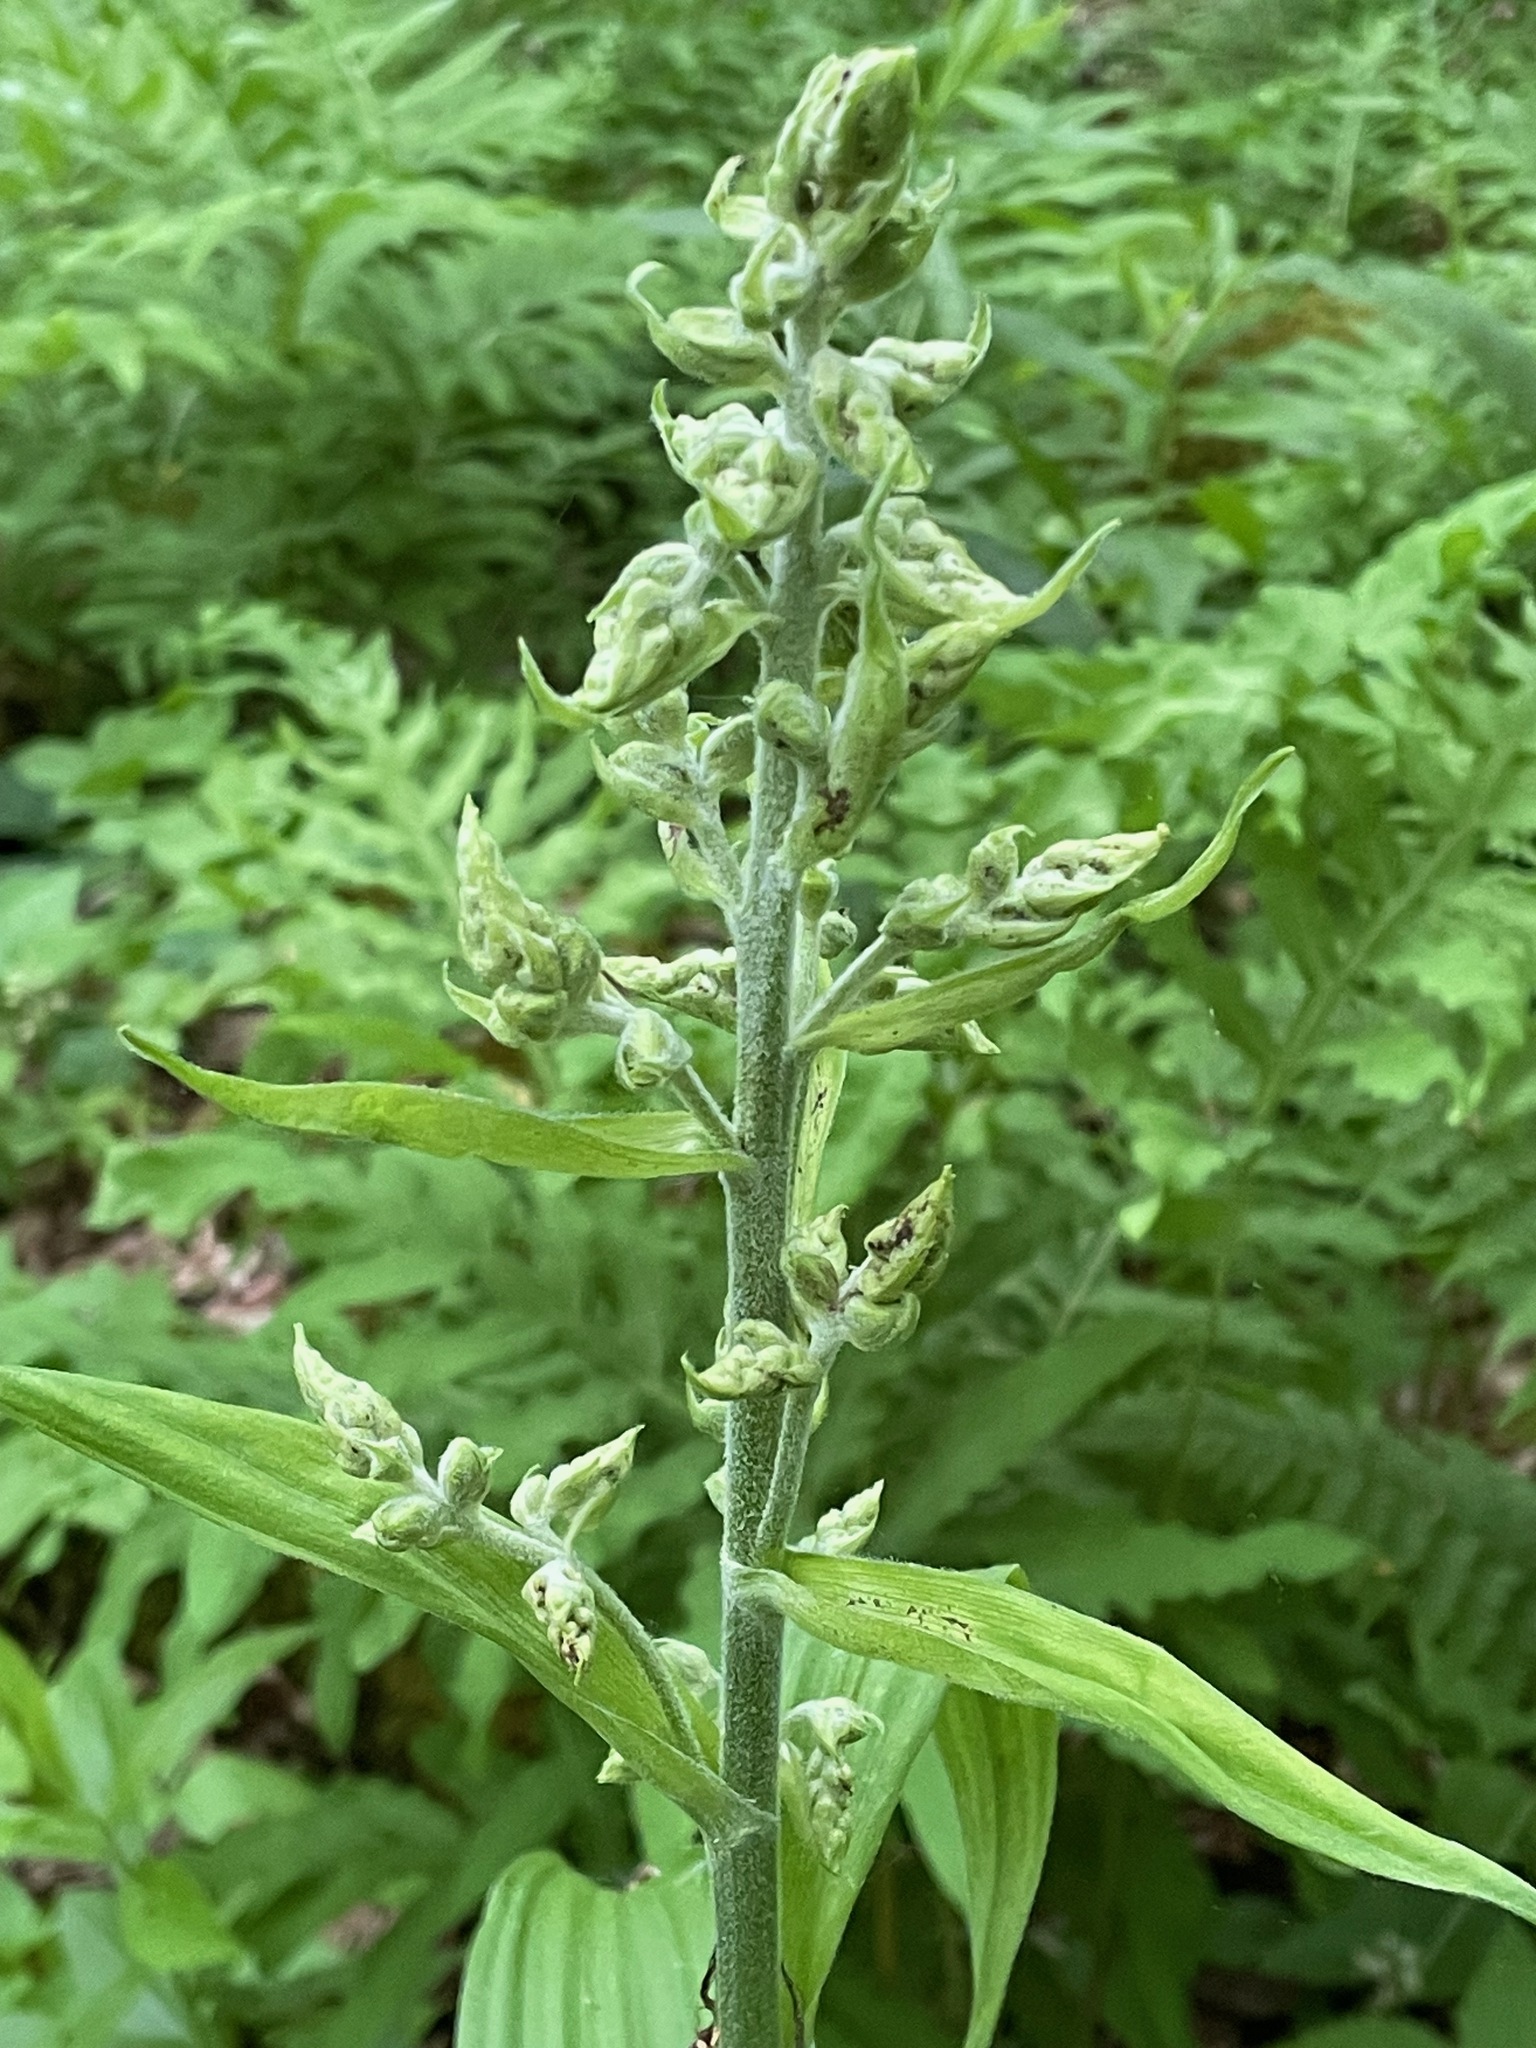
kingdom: Plantae
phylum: Tracheophyta
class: Liliopsida
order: Liliales
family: Melanthiaceae
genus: Veratrum
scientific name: Veratrum viride
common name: American false hellebore
